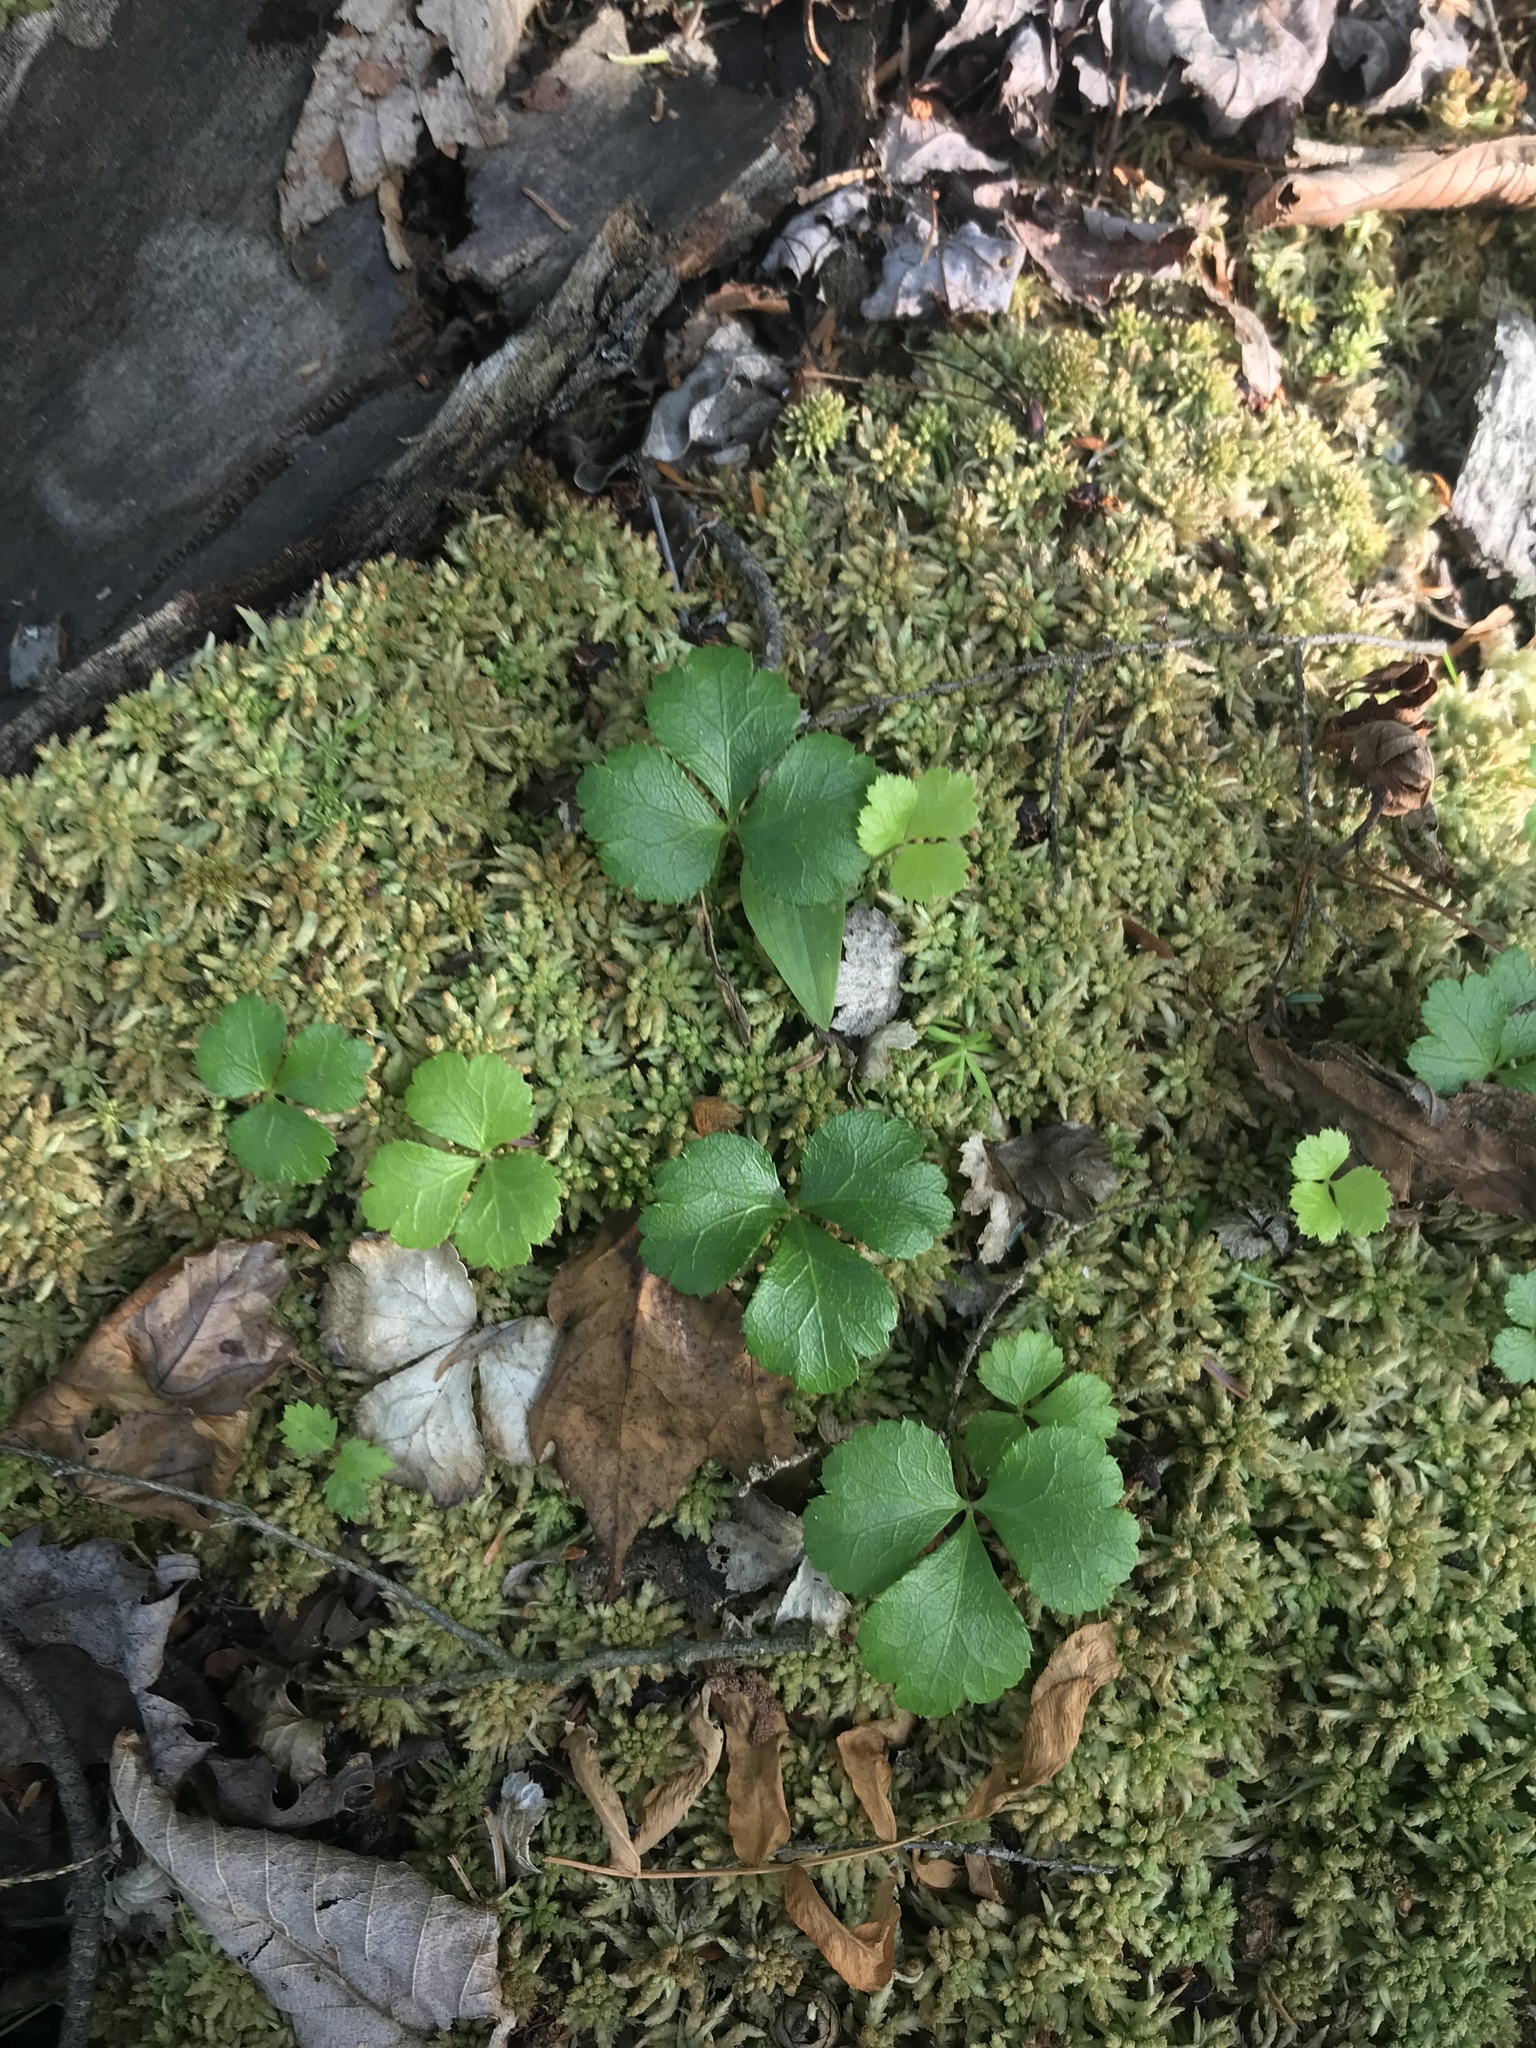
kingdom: Plantae
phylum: Tracheophyta
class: Magnoliopsida
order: Ranunculales
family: Ranunculaceae
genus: Coptis
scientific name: Coptis trifolia
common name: Canker-root
